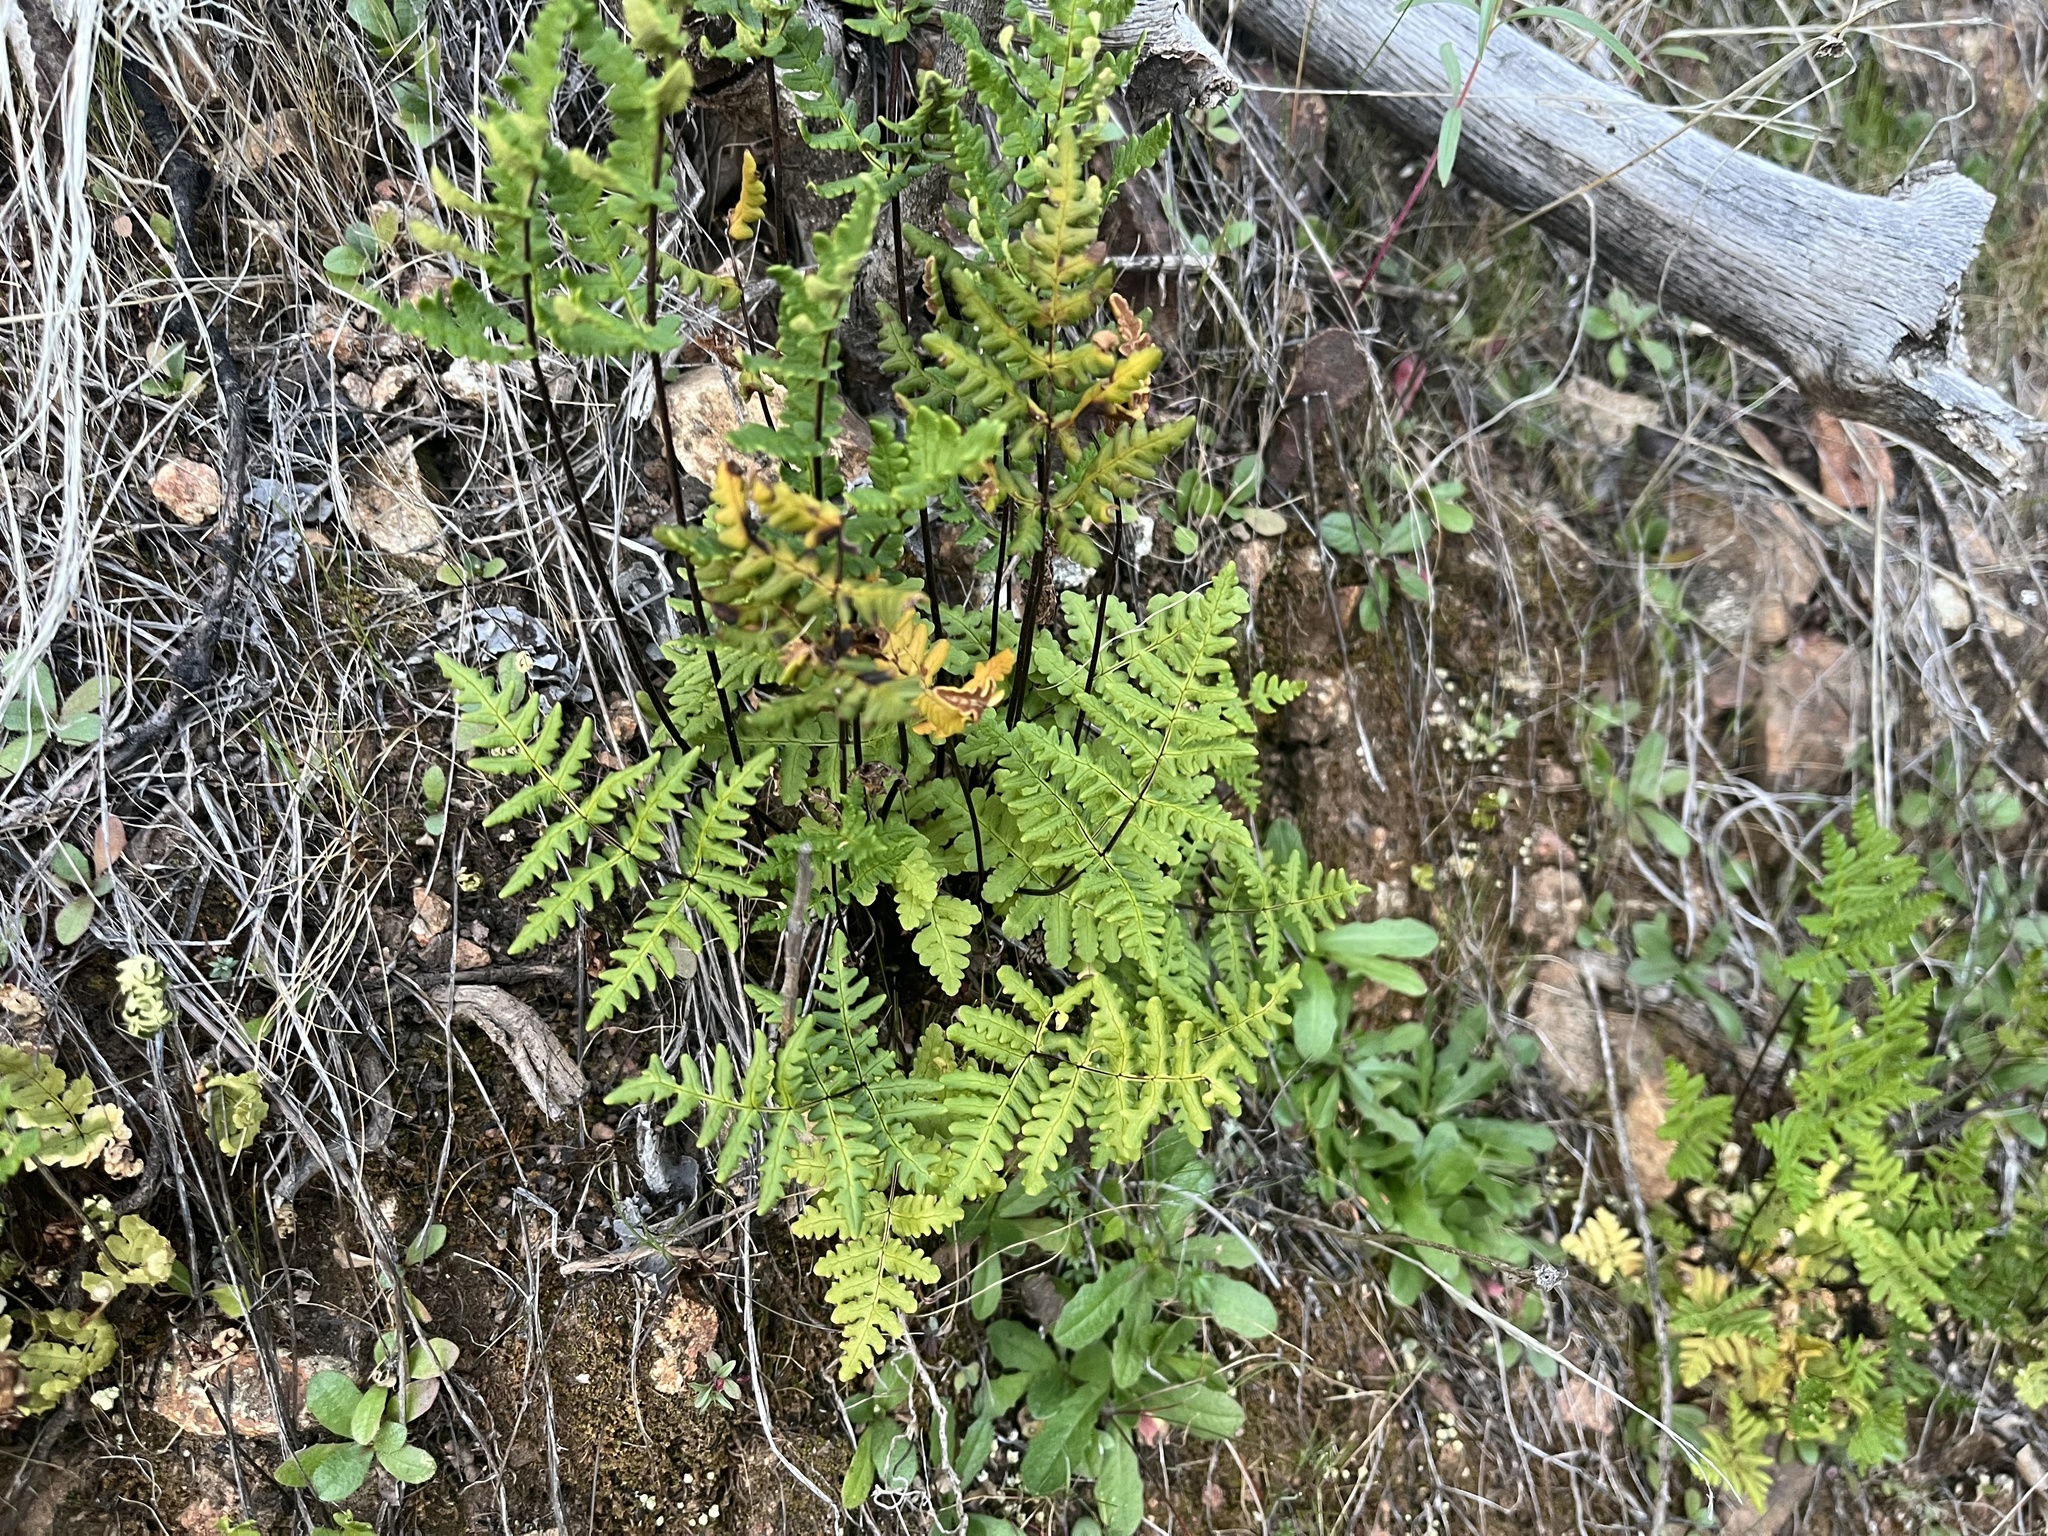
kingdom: Plantae
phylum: Tracheophyta
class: Polypodiopsida
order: Polypodiales
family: Pteridaceae
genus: Pentagramma
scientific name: Pentagramma triangularis
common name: Gold fern
